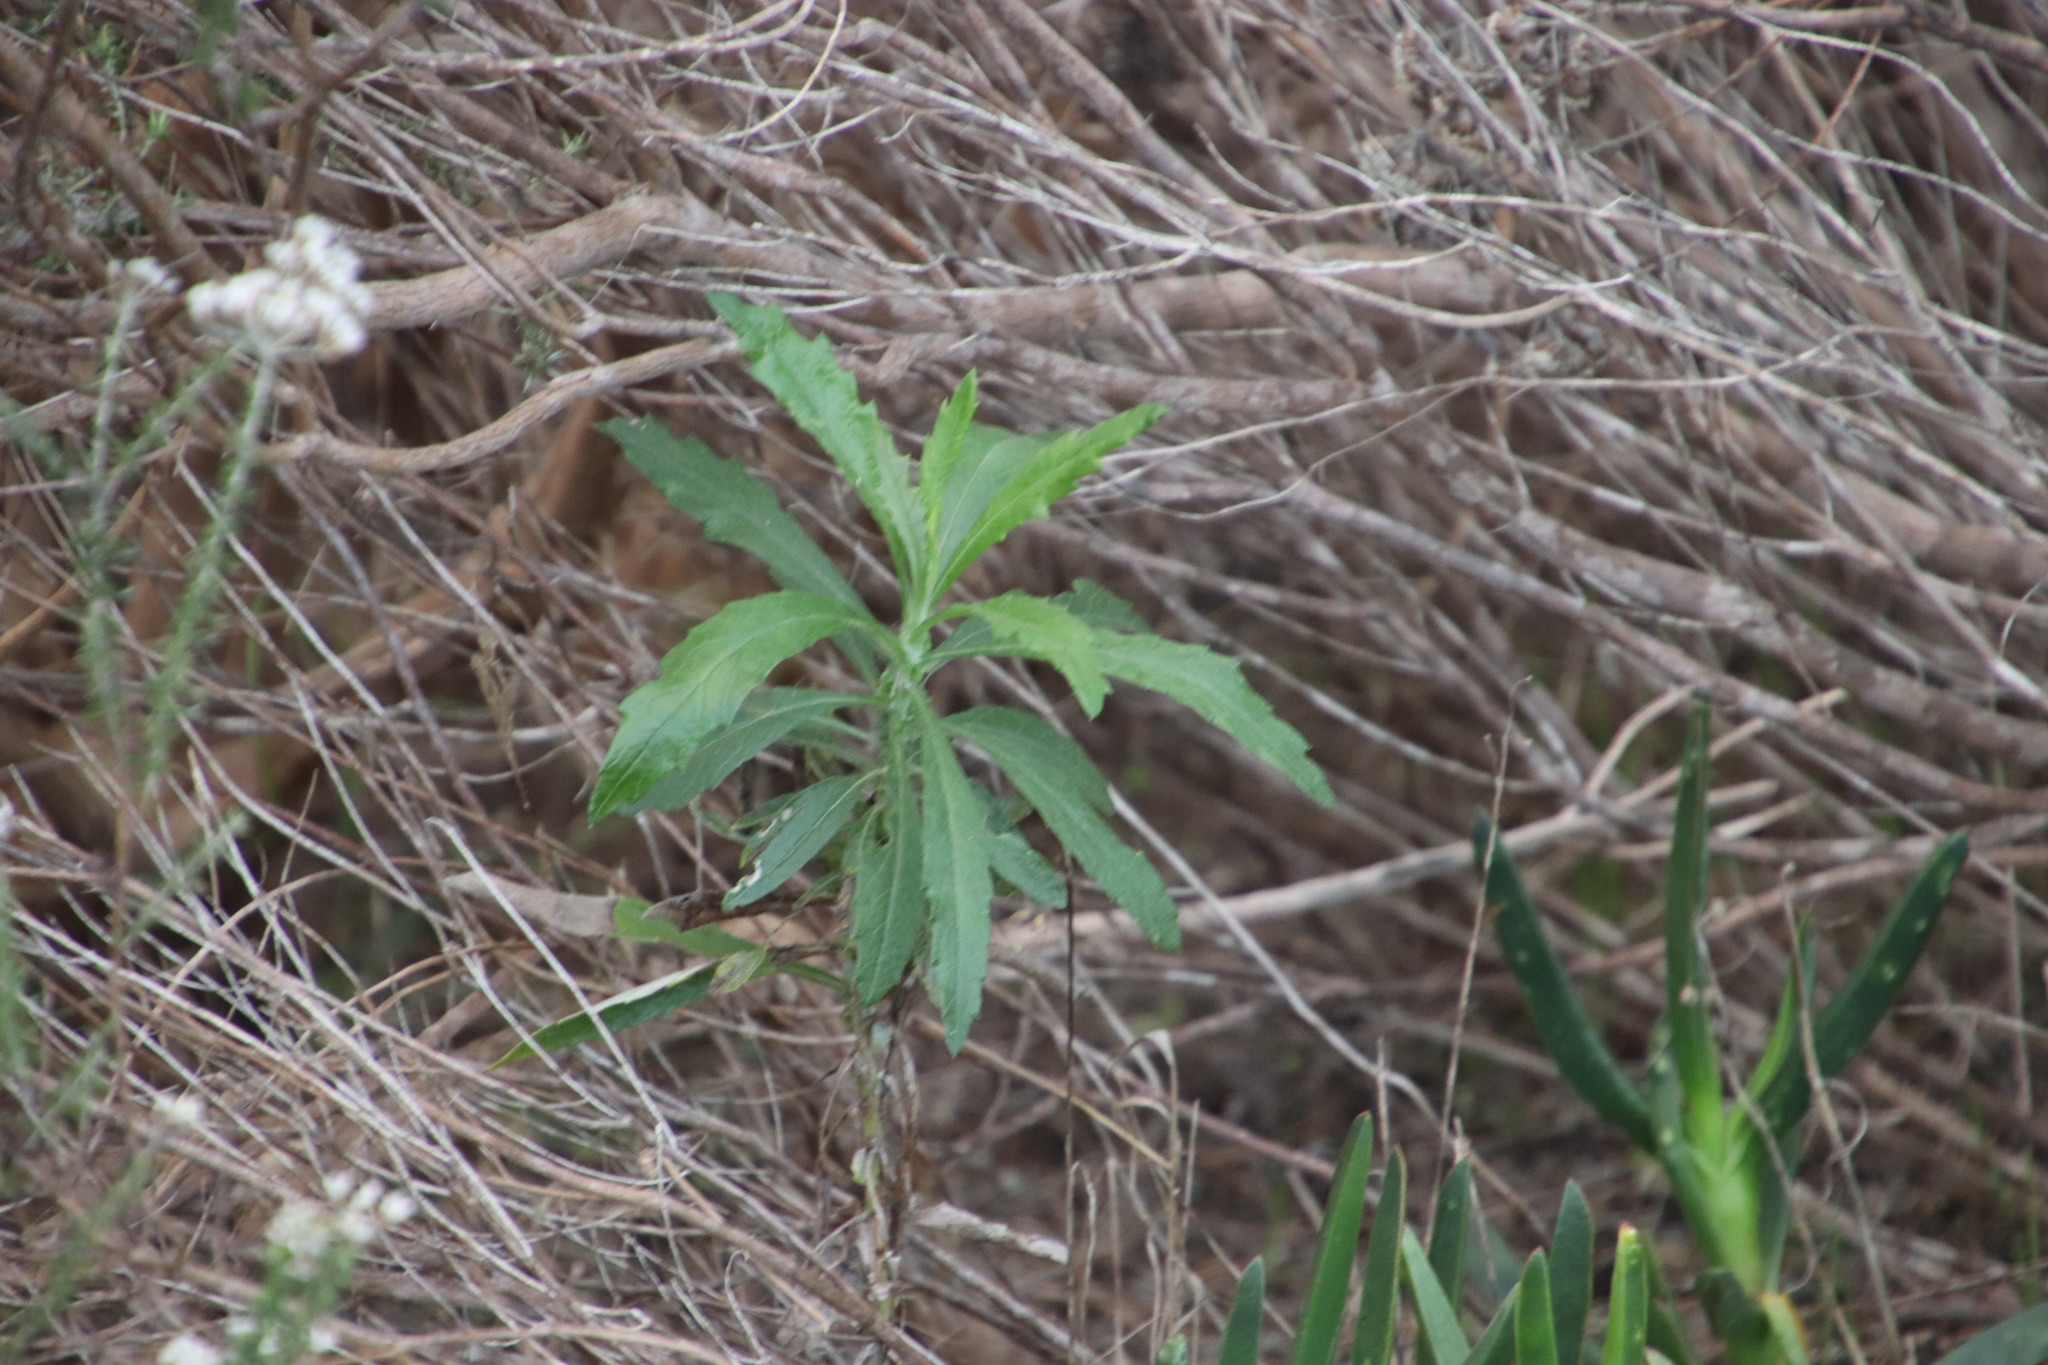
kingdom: Plantae
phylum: Tracheophyta
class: Magnoliopsida
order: Asterales
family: Asteraceae
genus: Senecio
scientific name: Senecio pterophorus
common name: Shoddy ragwort
